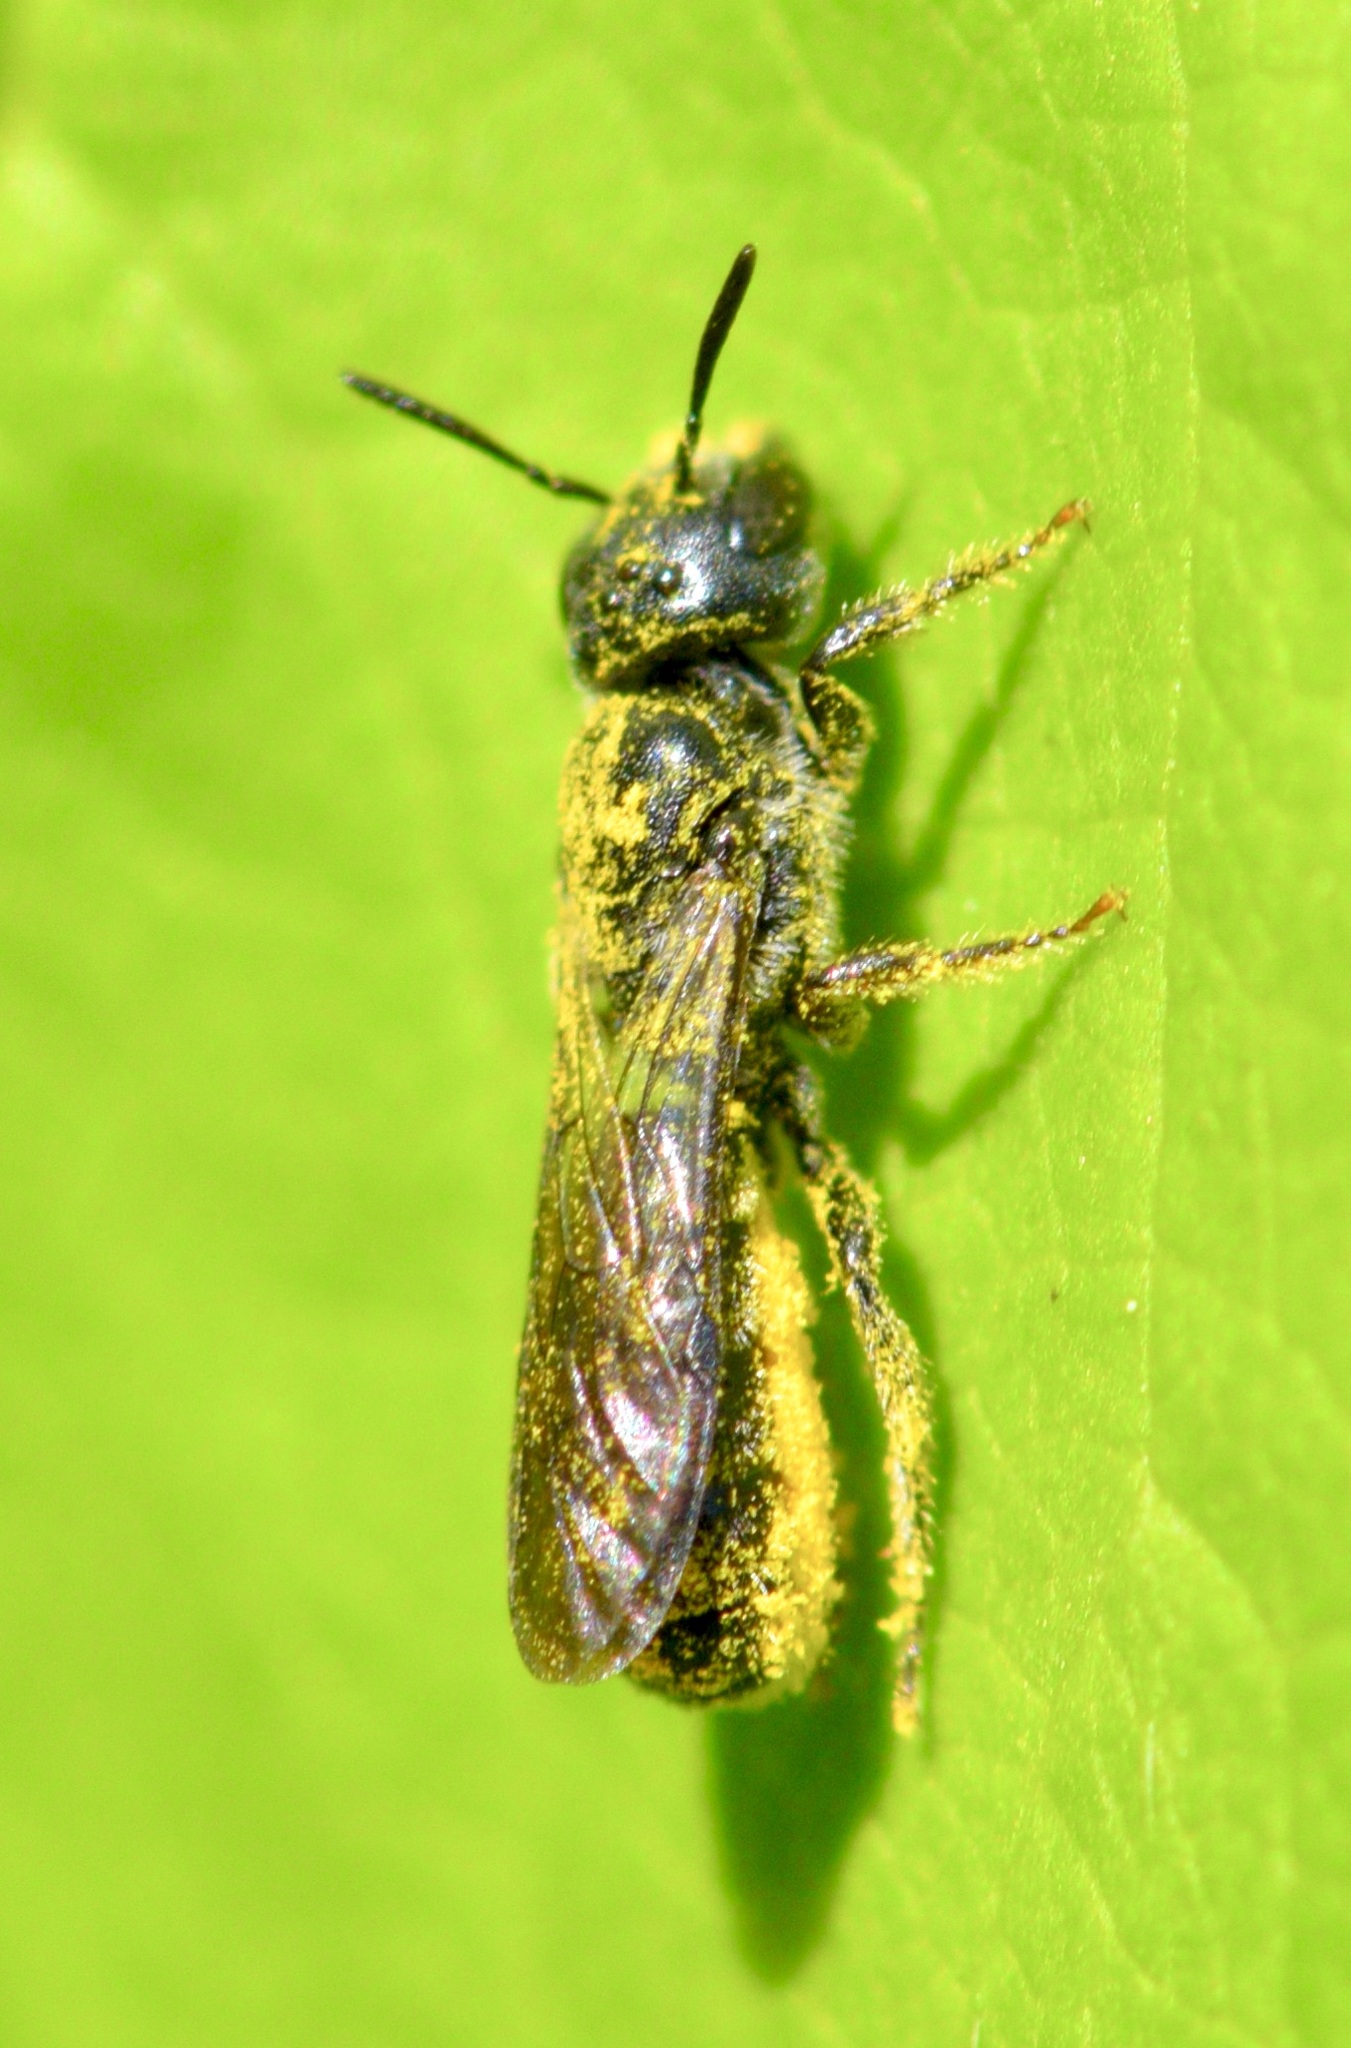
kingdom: Animalia
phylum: Arthropoda
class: Insecta
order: Hymenoptera
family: Megachilidae
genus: Chelostoma
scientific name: Chelostoma philadelphi
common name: Mock-orange scissor bee
